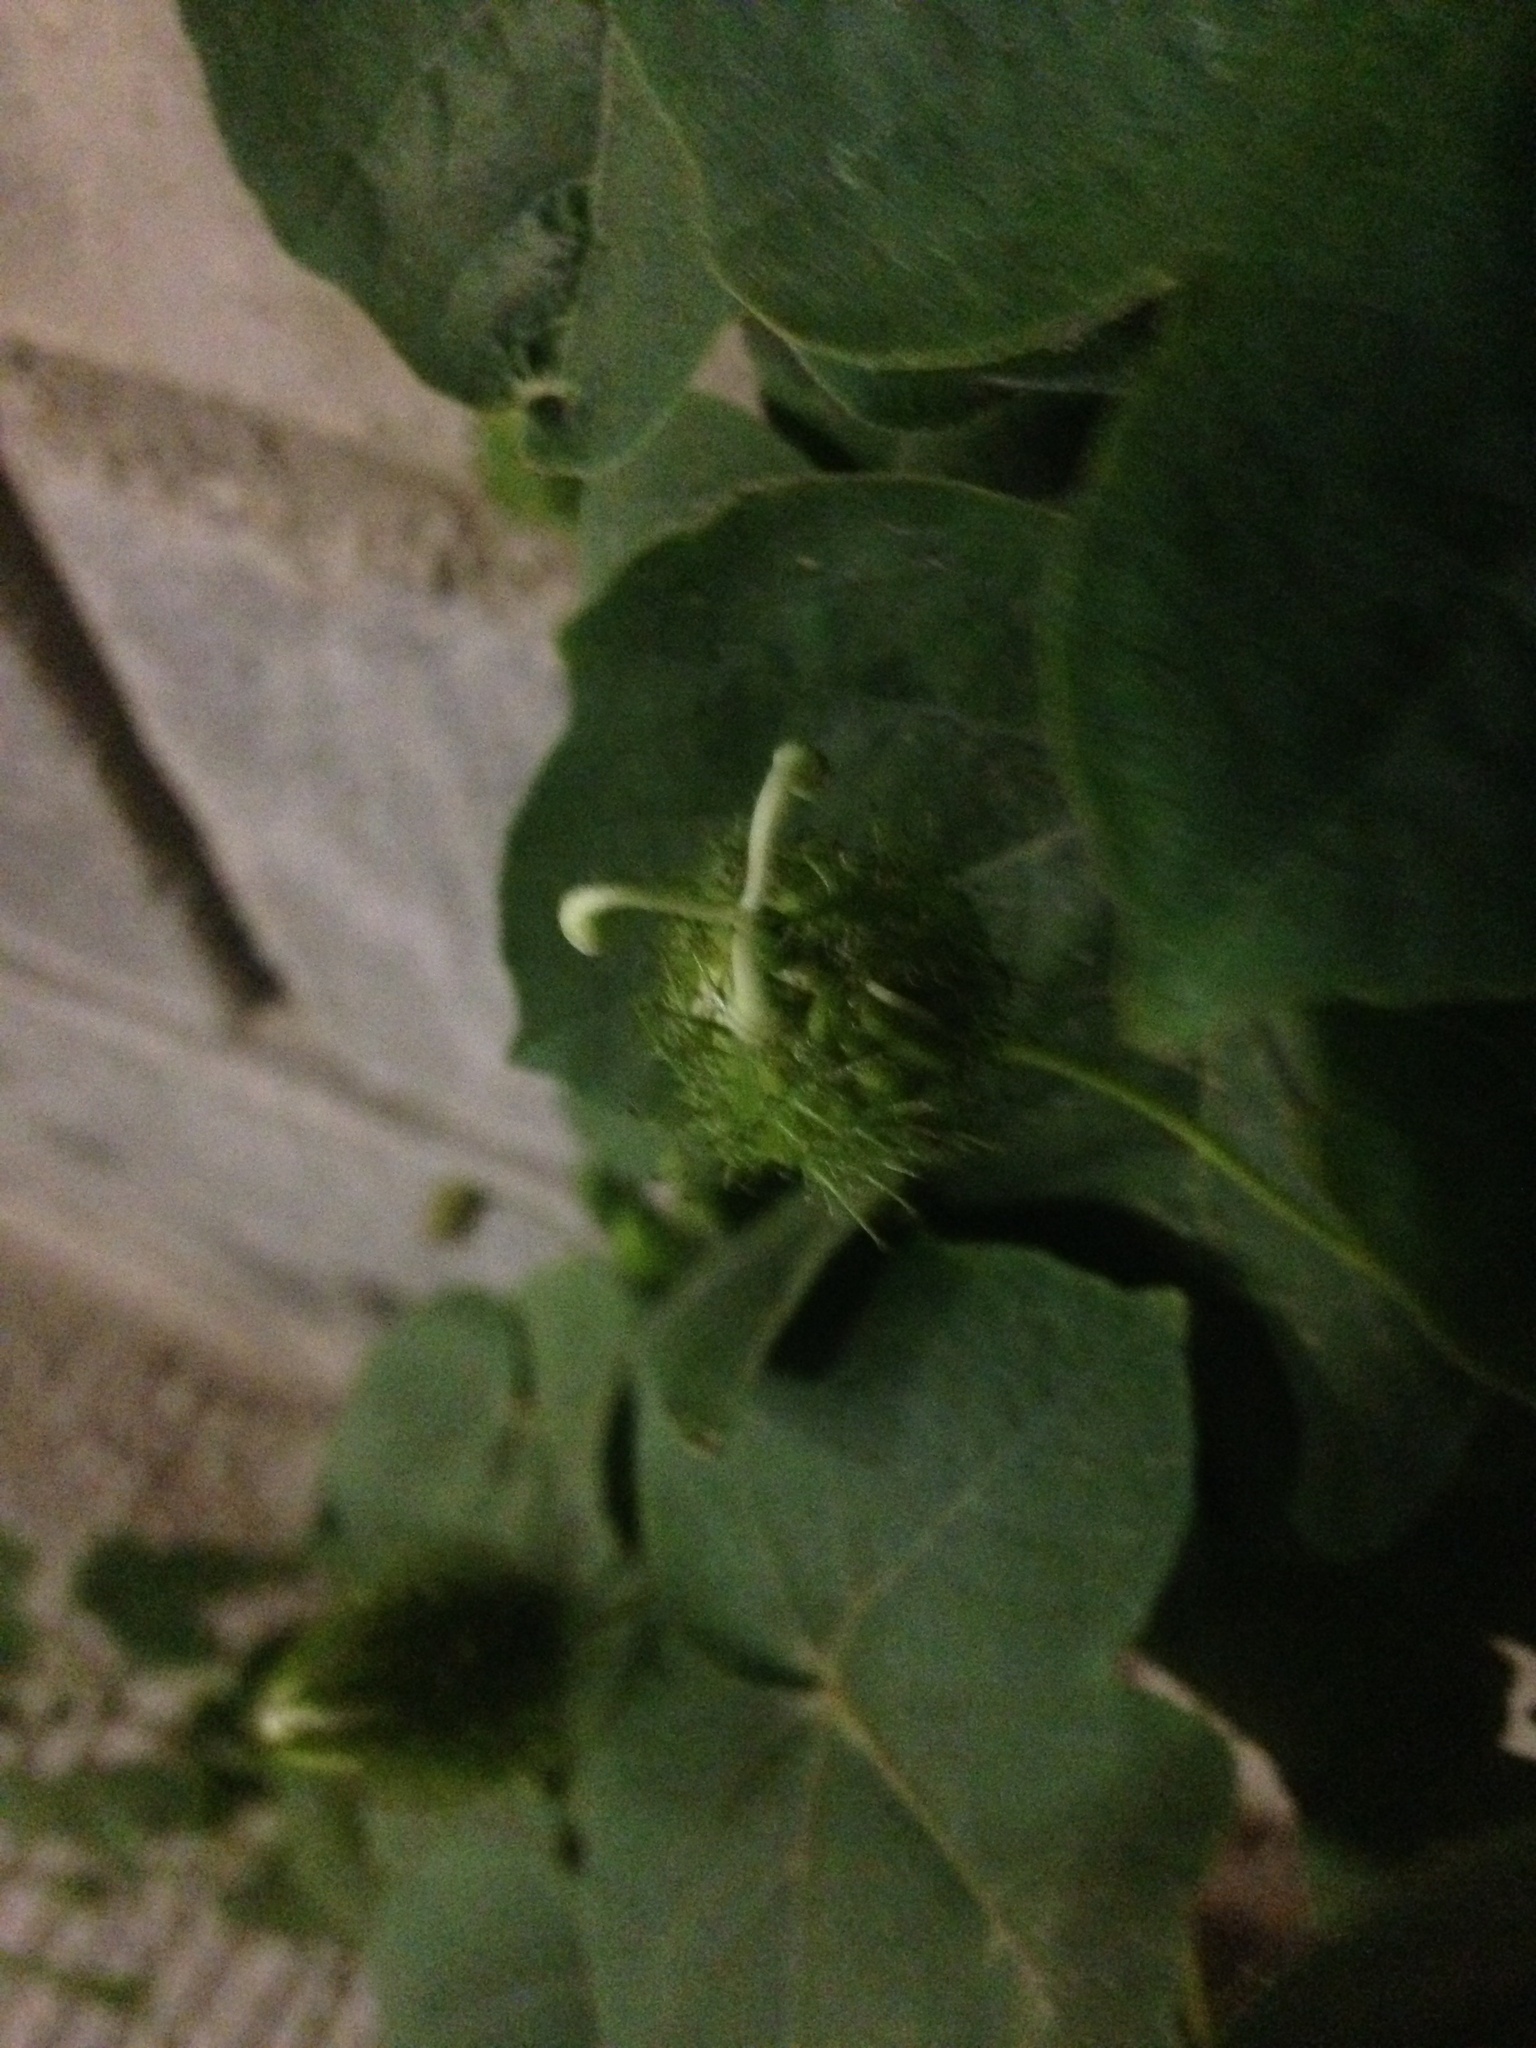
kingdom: Plantae
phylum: Tracheophyta
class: Magnoliopsida
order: Malpighiales
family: Passifloraceae
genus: Passiflora
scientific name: Passiflora foetida
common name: Fetid passionflower
